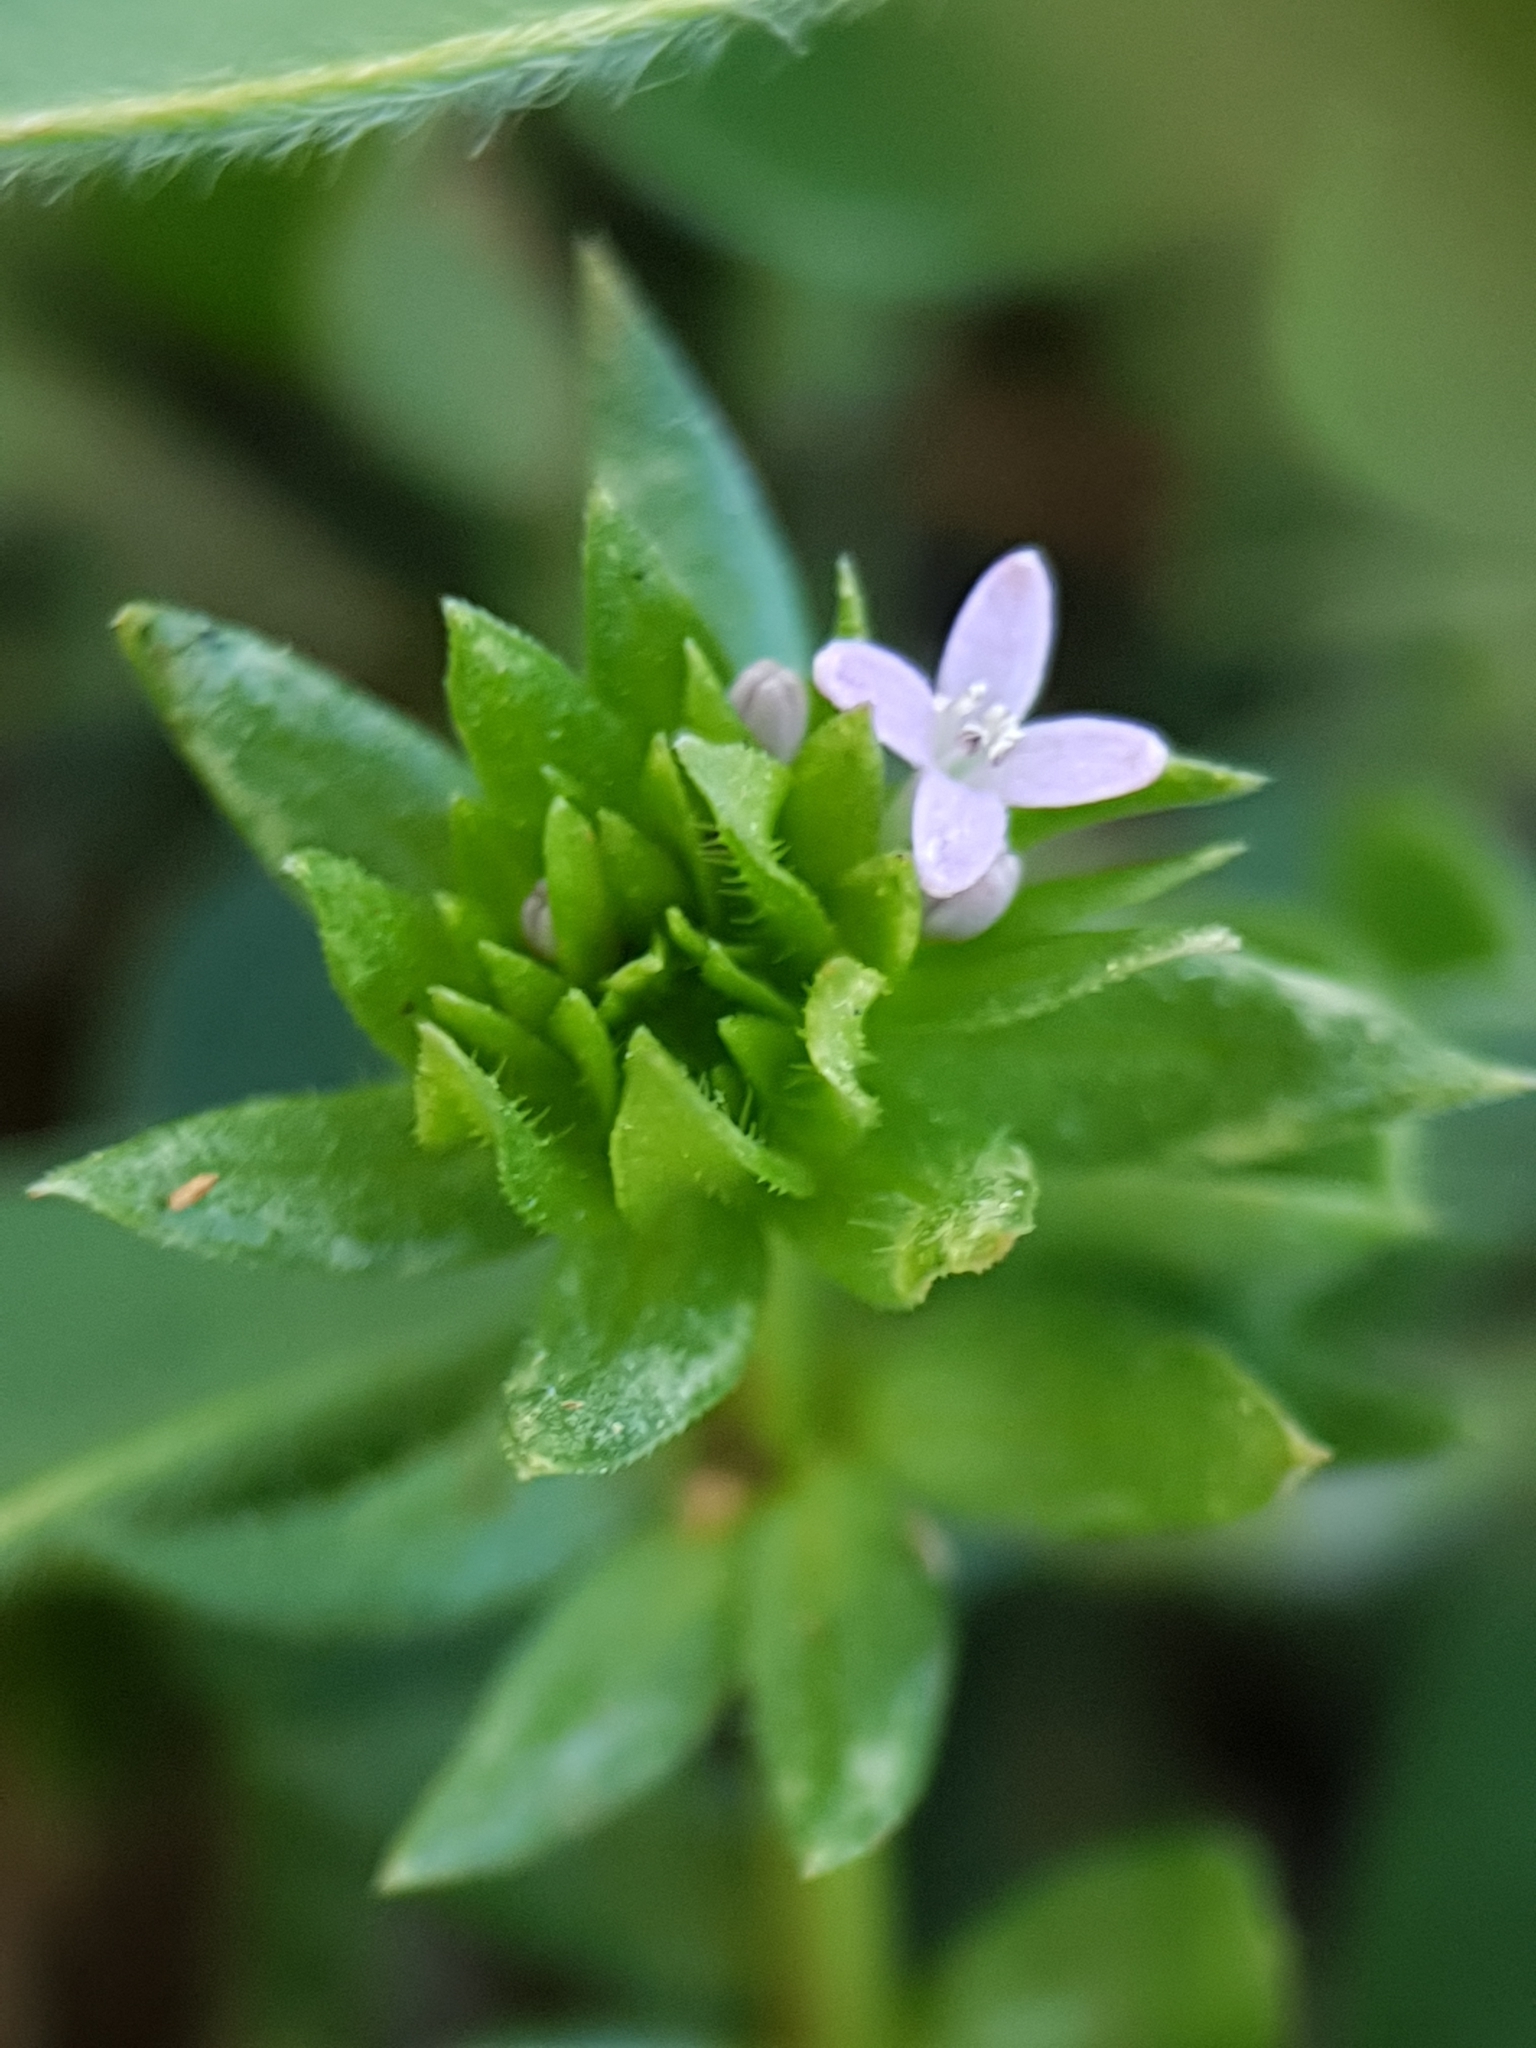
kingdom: Plantae
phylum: Tracheophyta
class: Magnoliopsida
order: Gentianales
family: Rubiaceae
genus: Sherardia
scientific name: Sherardia arvensis
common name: Field madder
